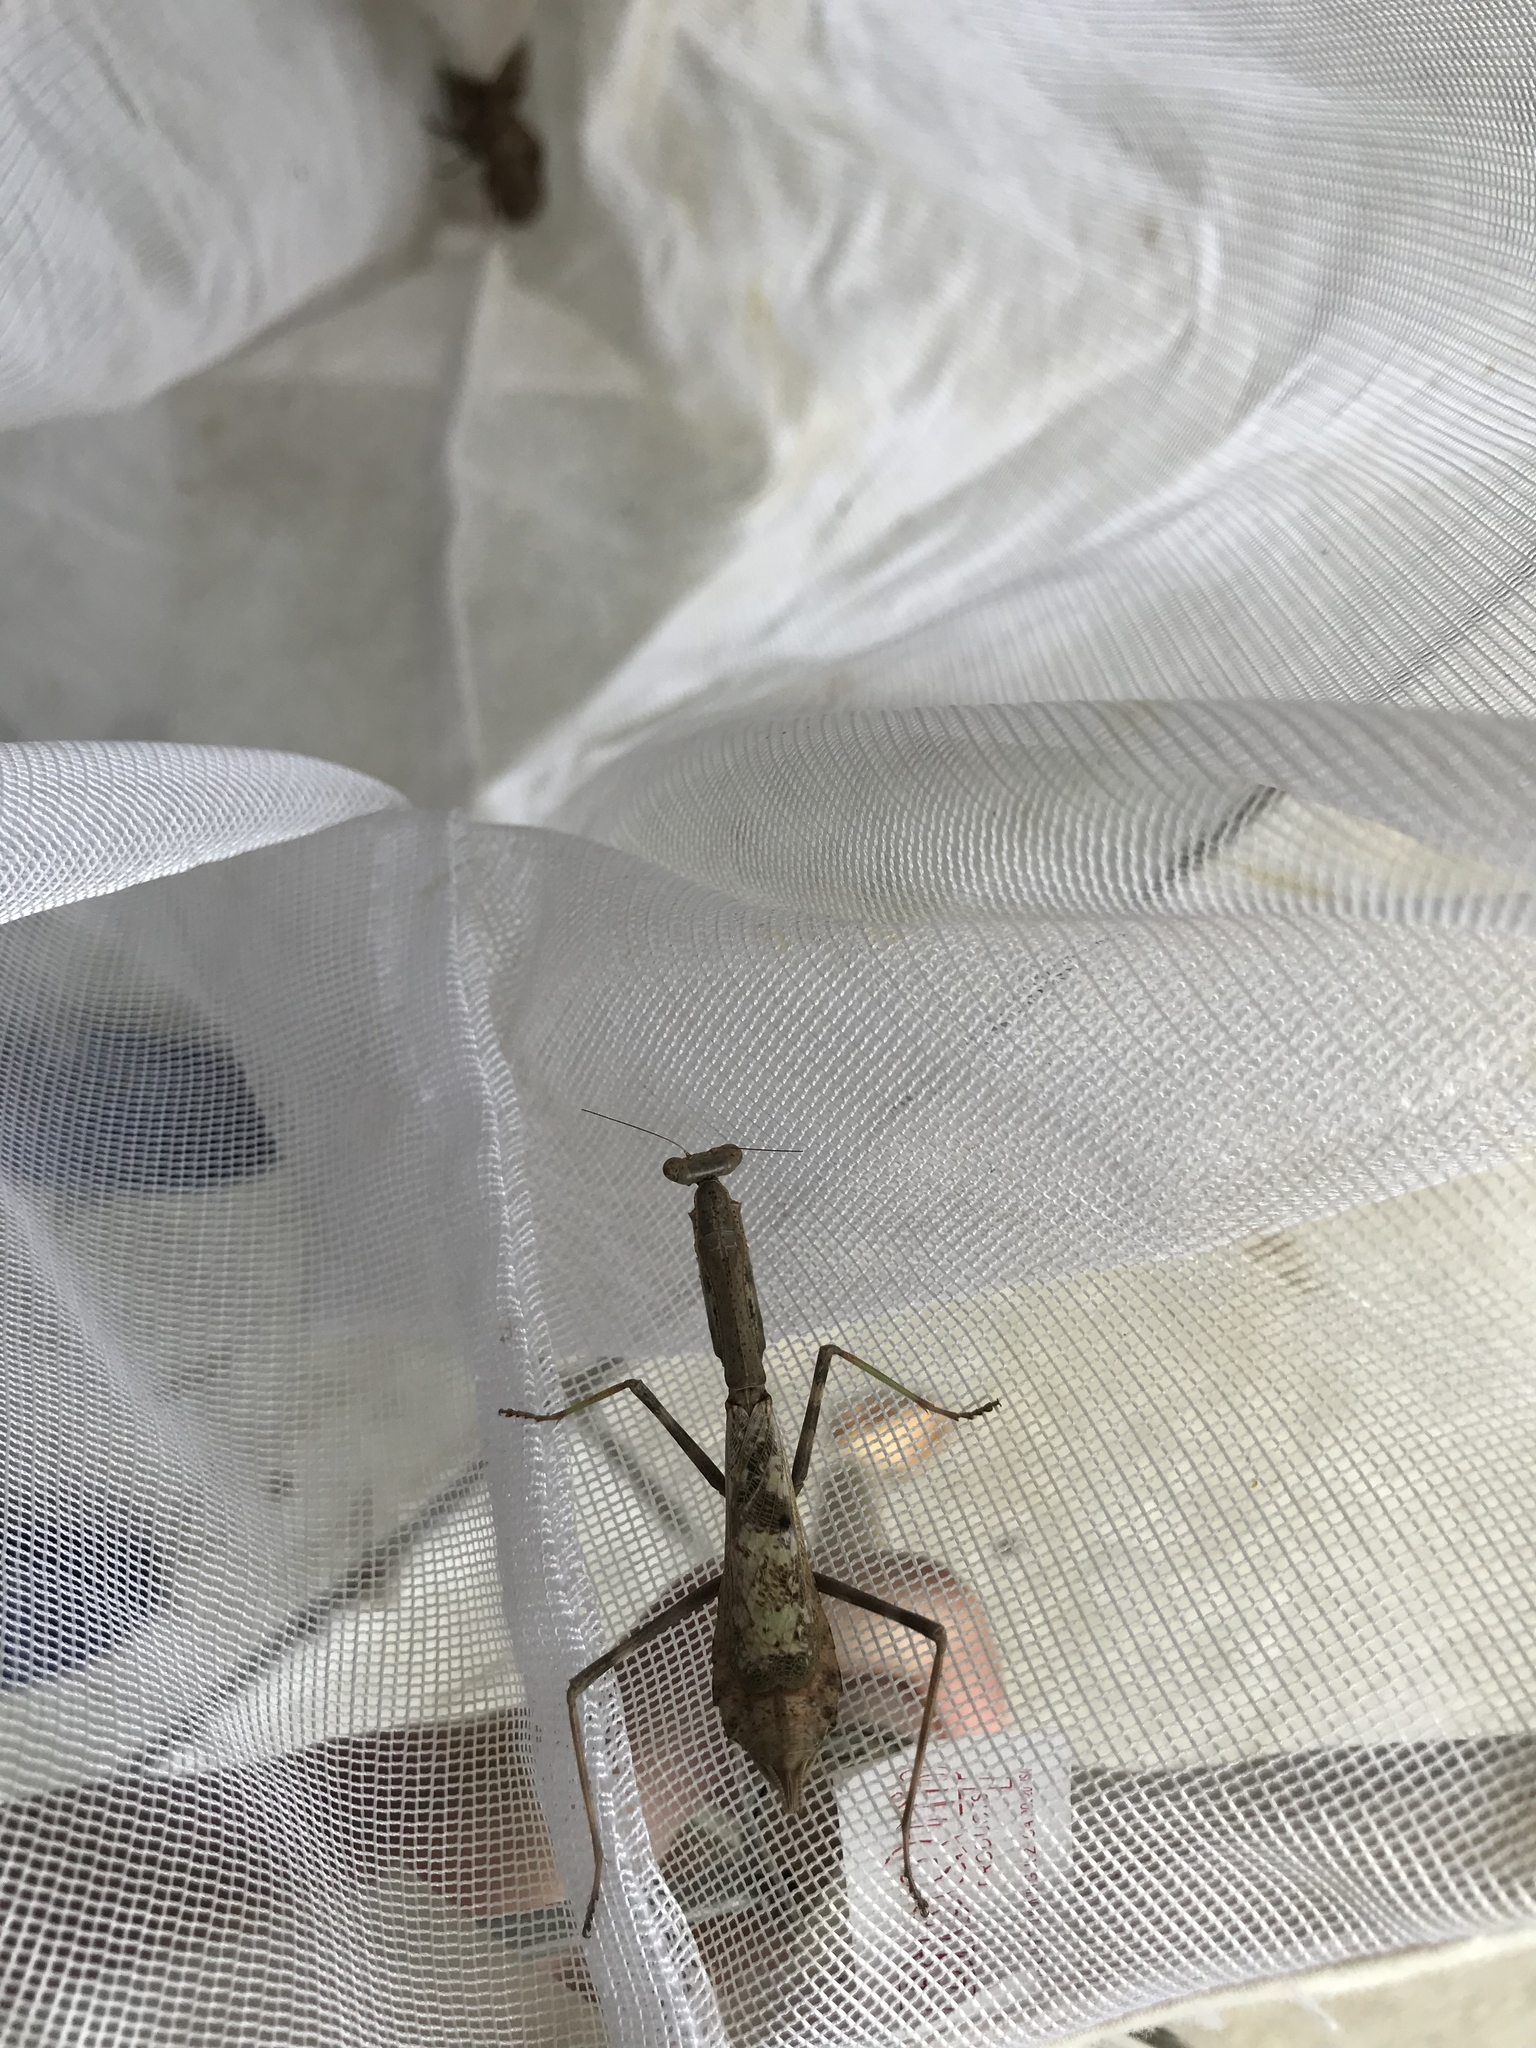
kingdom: Animalia
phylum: Arthropoda
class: Insecta
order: Mantodea
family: Mantidae
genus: Stagmomantis
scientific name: Stagmomantis carolina
